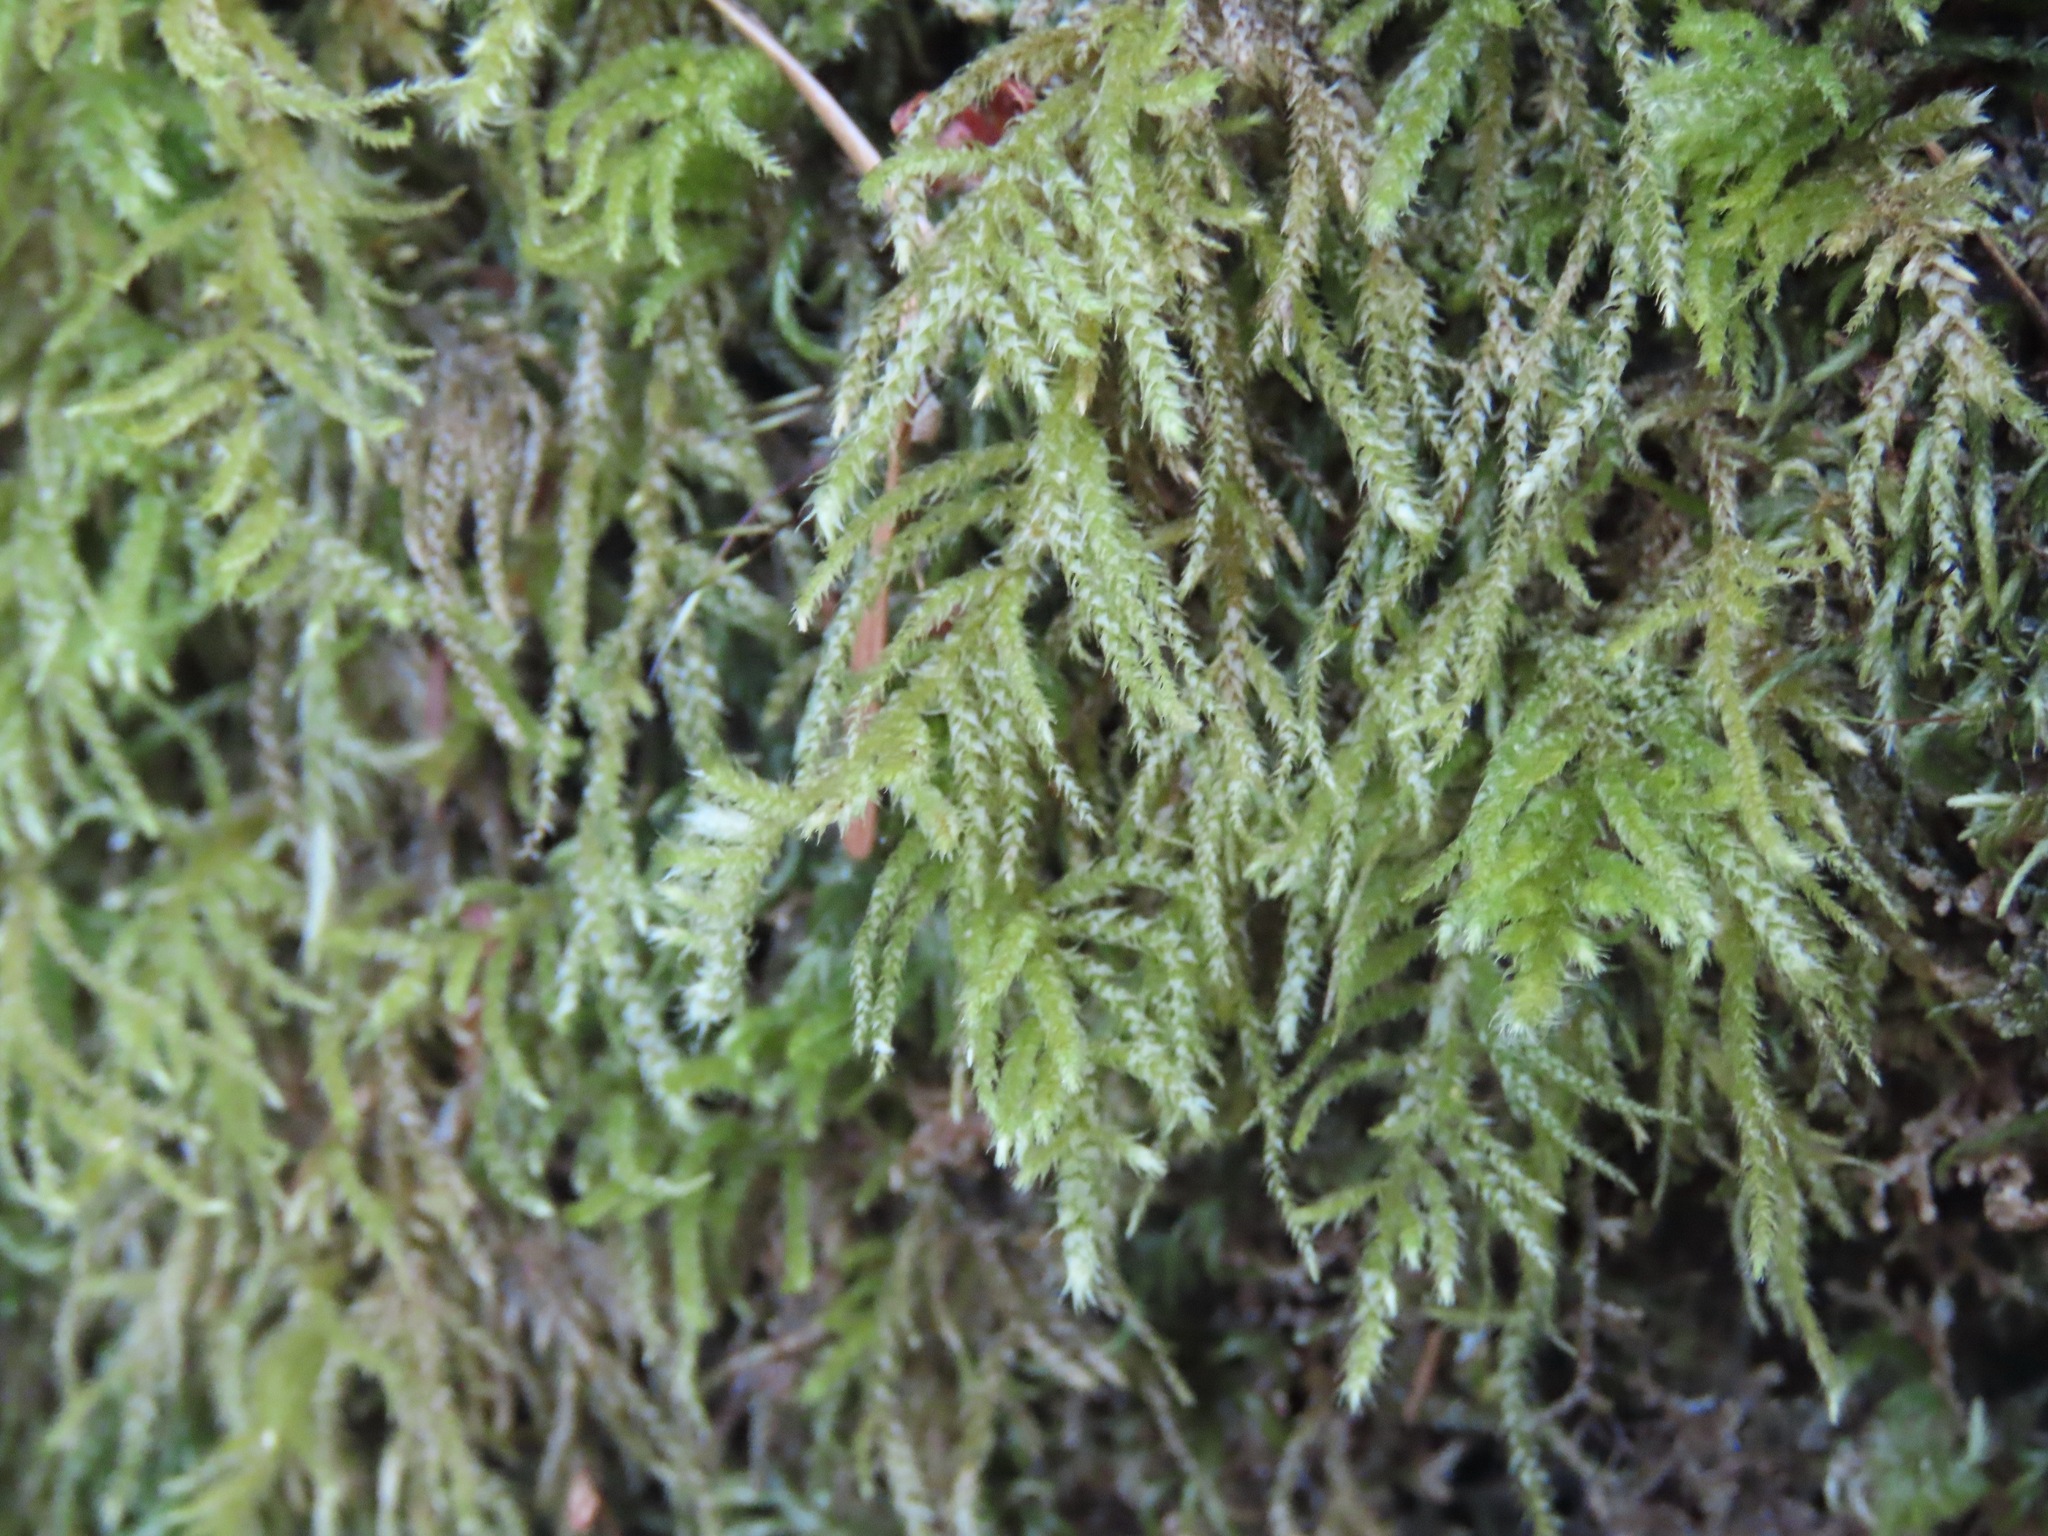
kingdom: Plantae
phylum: Bryophyta
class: Bryopsida
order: Hypnales
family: Brachytheciaceae
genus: Kindbergia
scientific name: Kindbergia oregana
